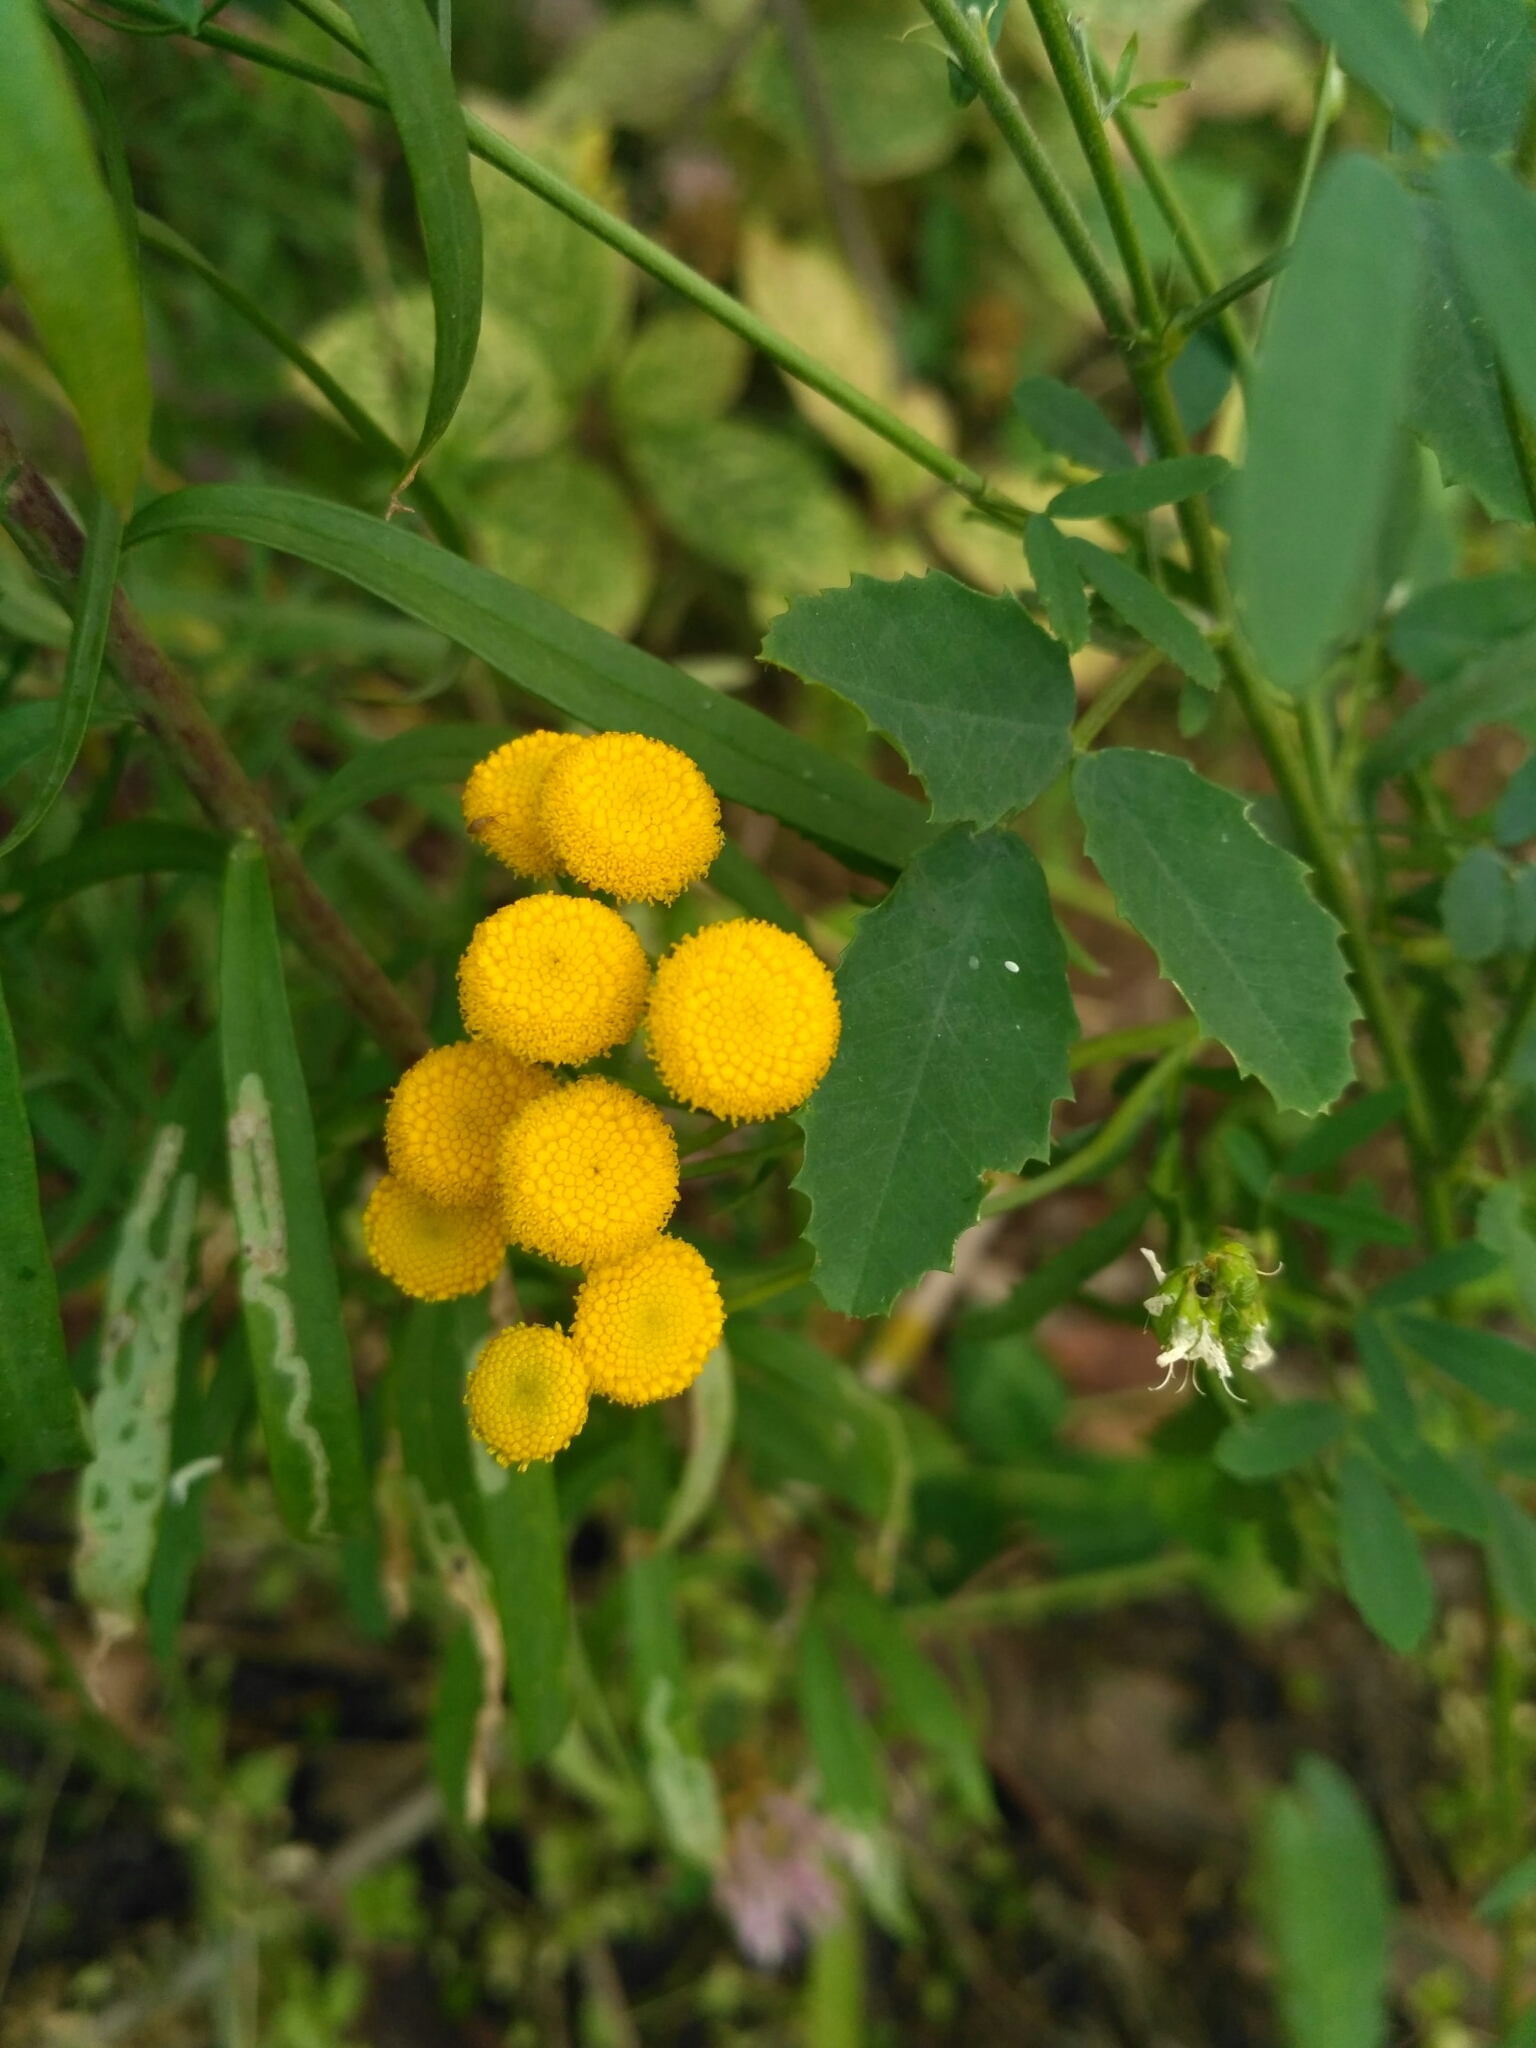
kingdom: Plantae
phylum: Tracheophyta
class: Magnoliopsida
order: Asterales
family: Asteraceae
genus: Tanacetum
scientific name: Tanacetum vulgare
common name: Common tansy
